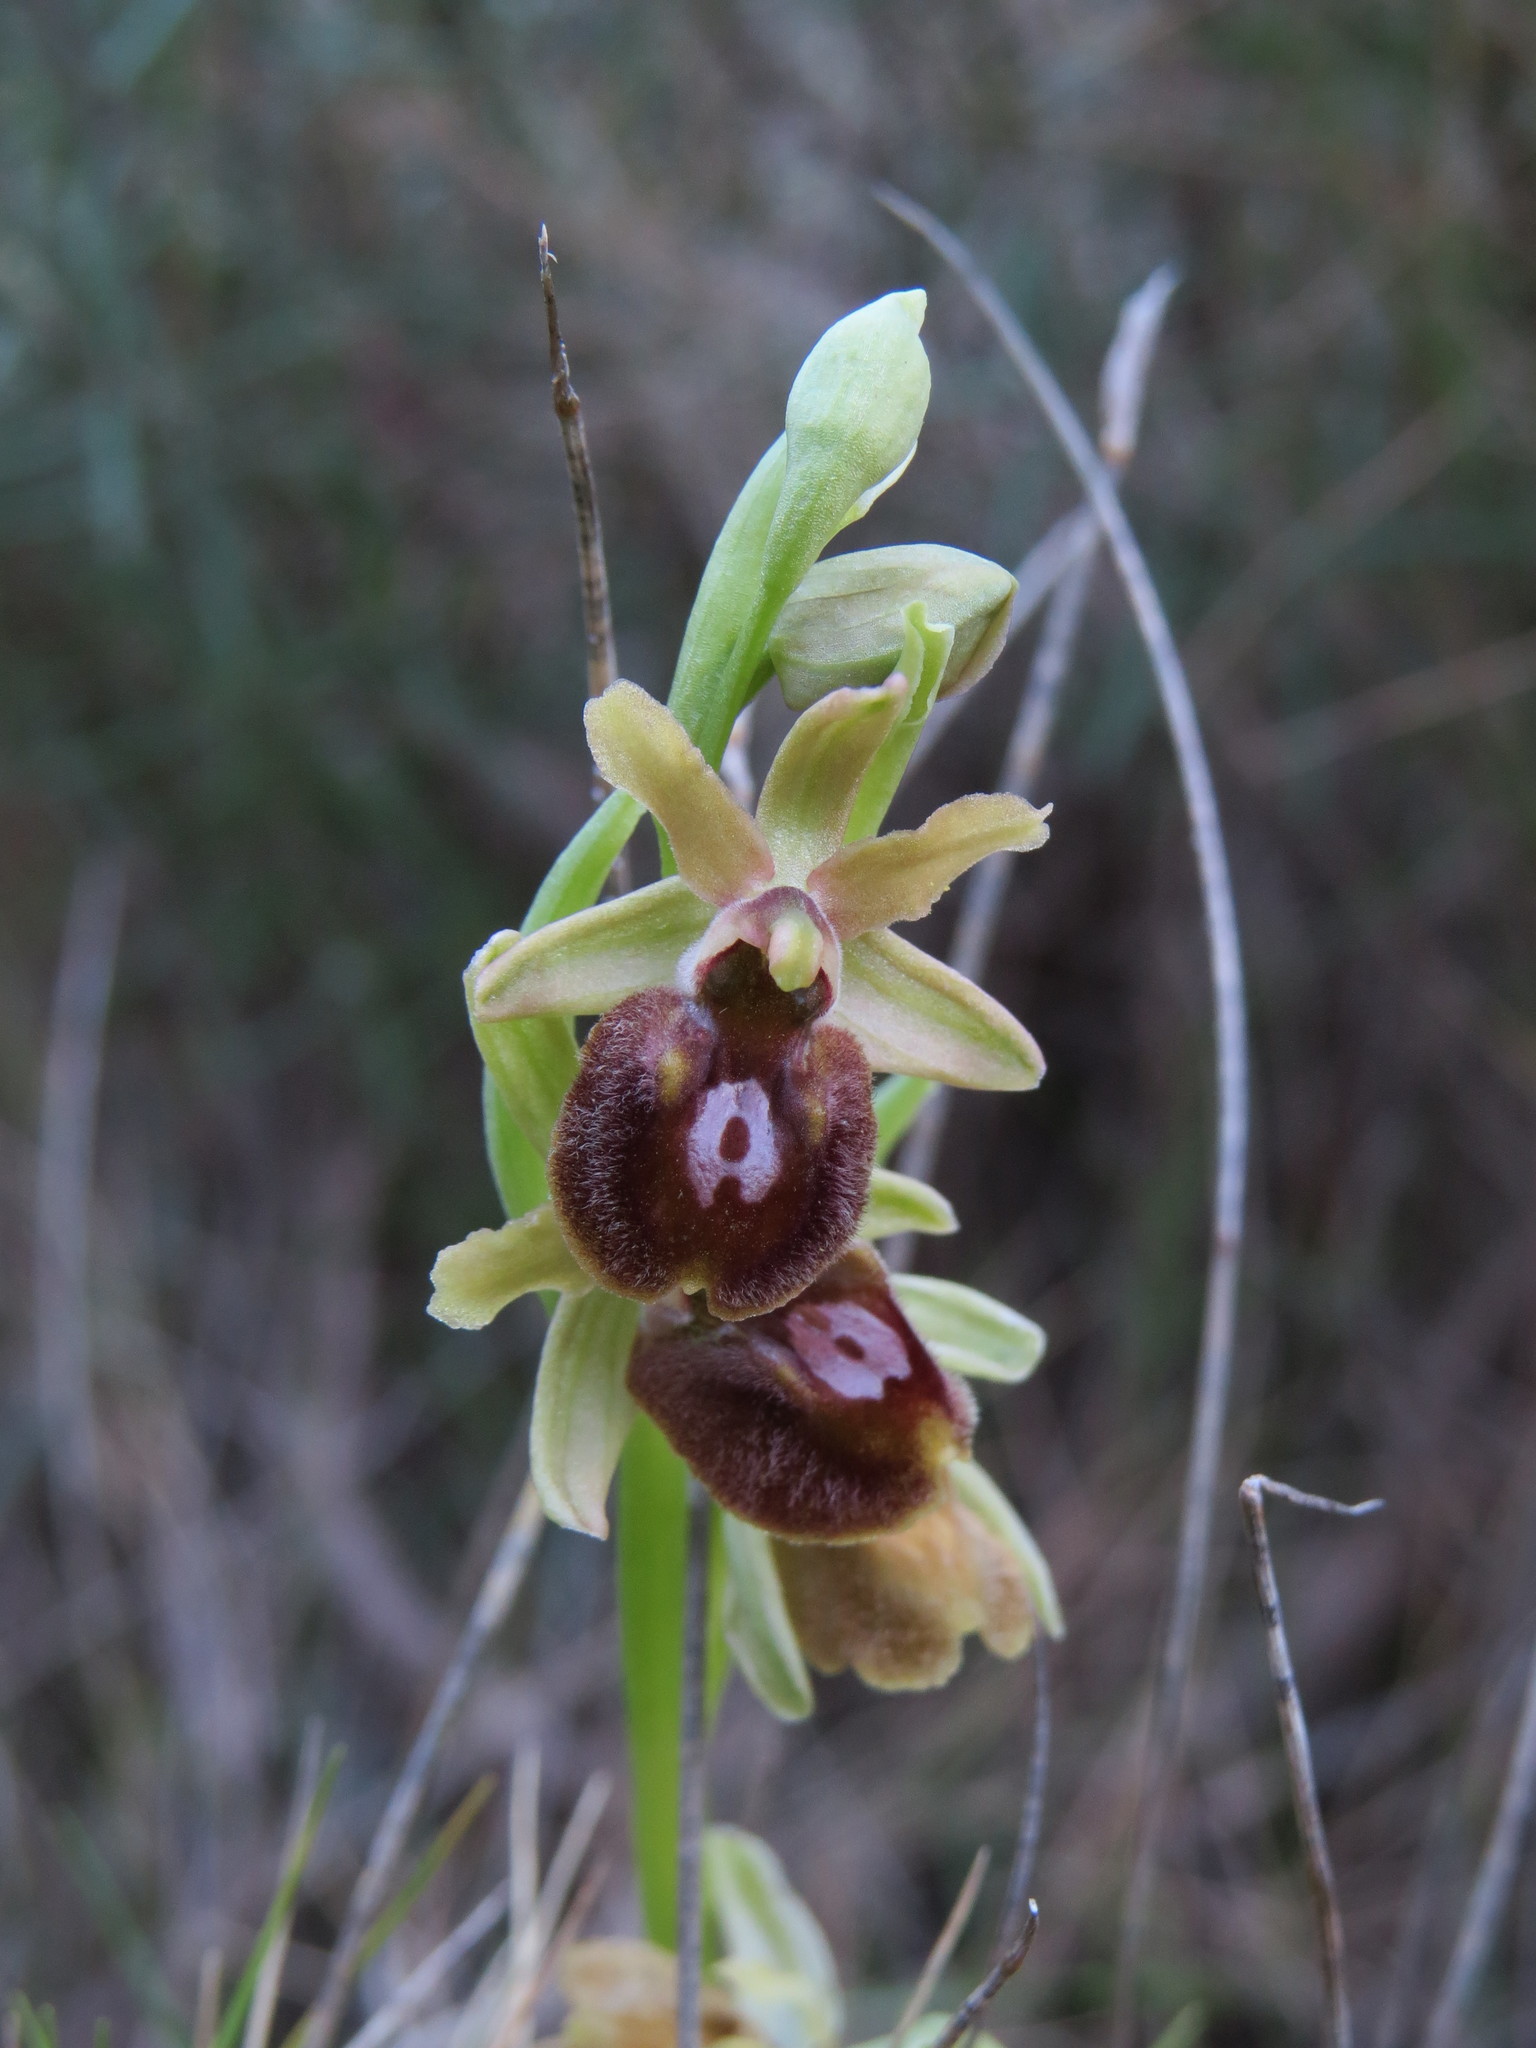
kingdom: Plantae
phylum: Tracheophyta
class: Liliopsida
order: Asparagales
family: Orchidaceae
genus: Ophrys
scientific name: Ophrys sphegodes
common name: Early spider-orchid
